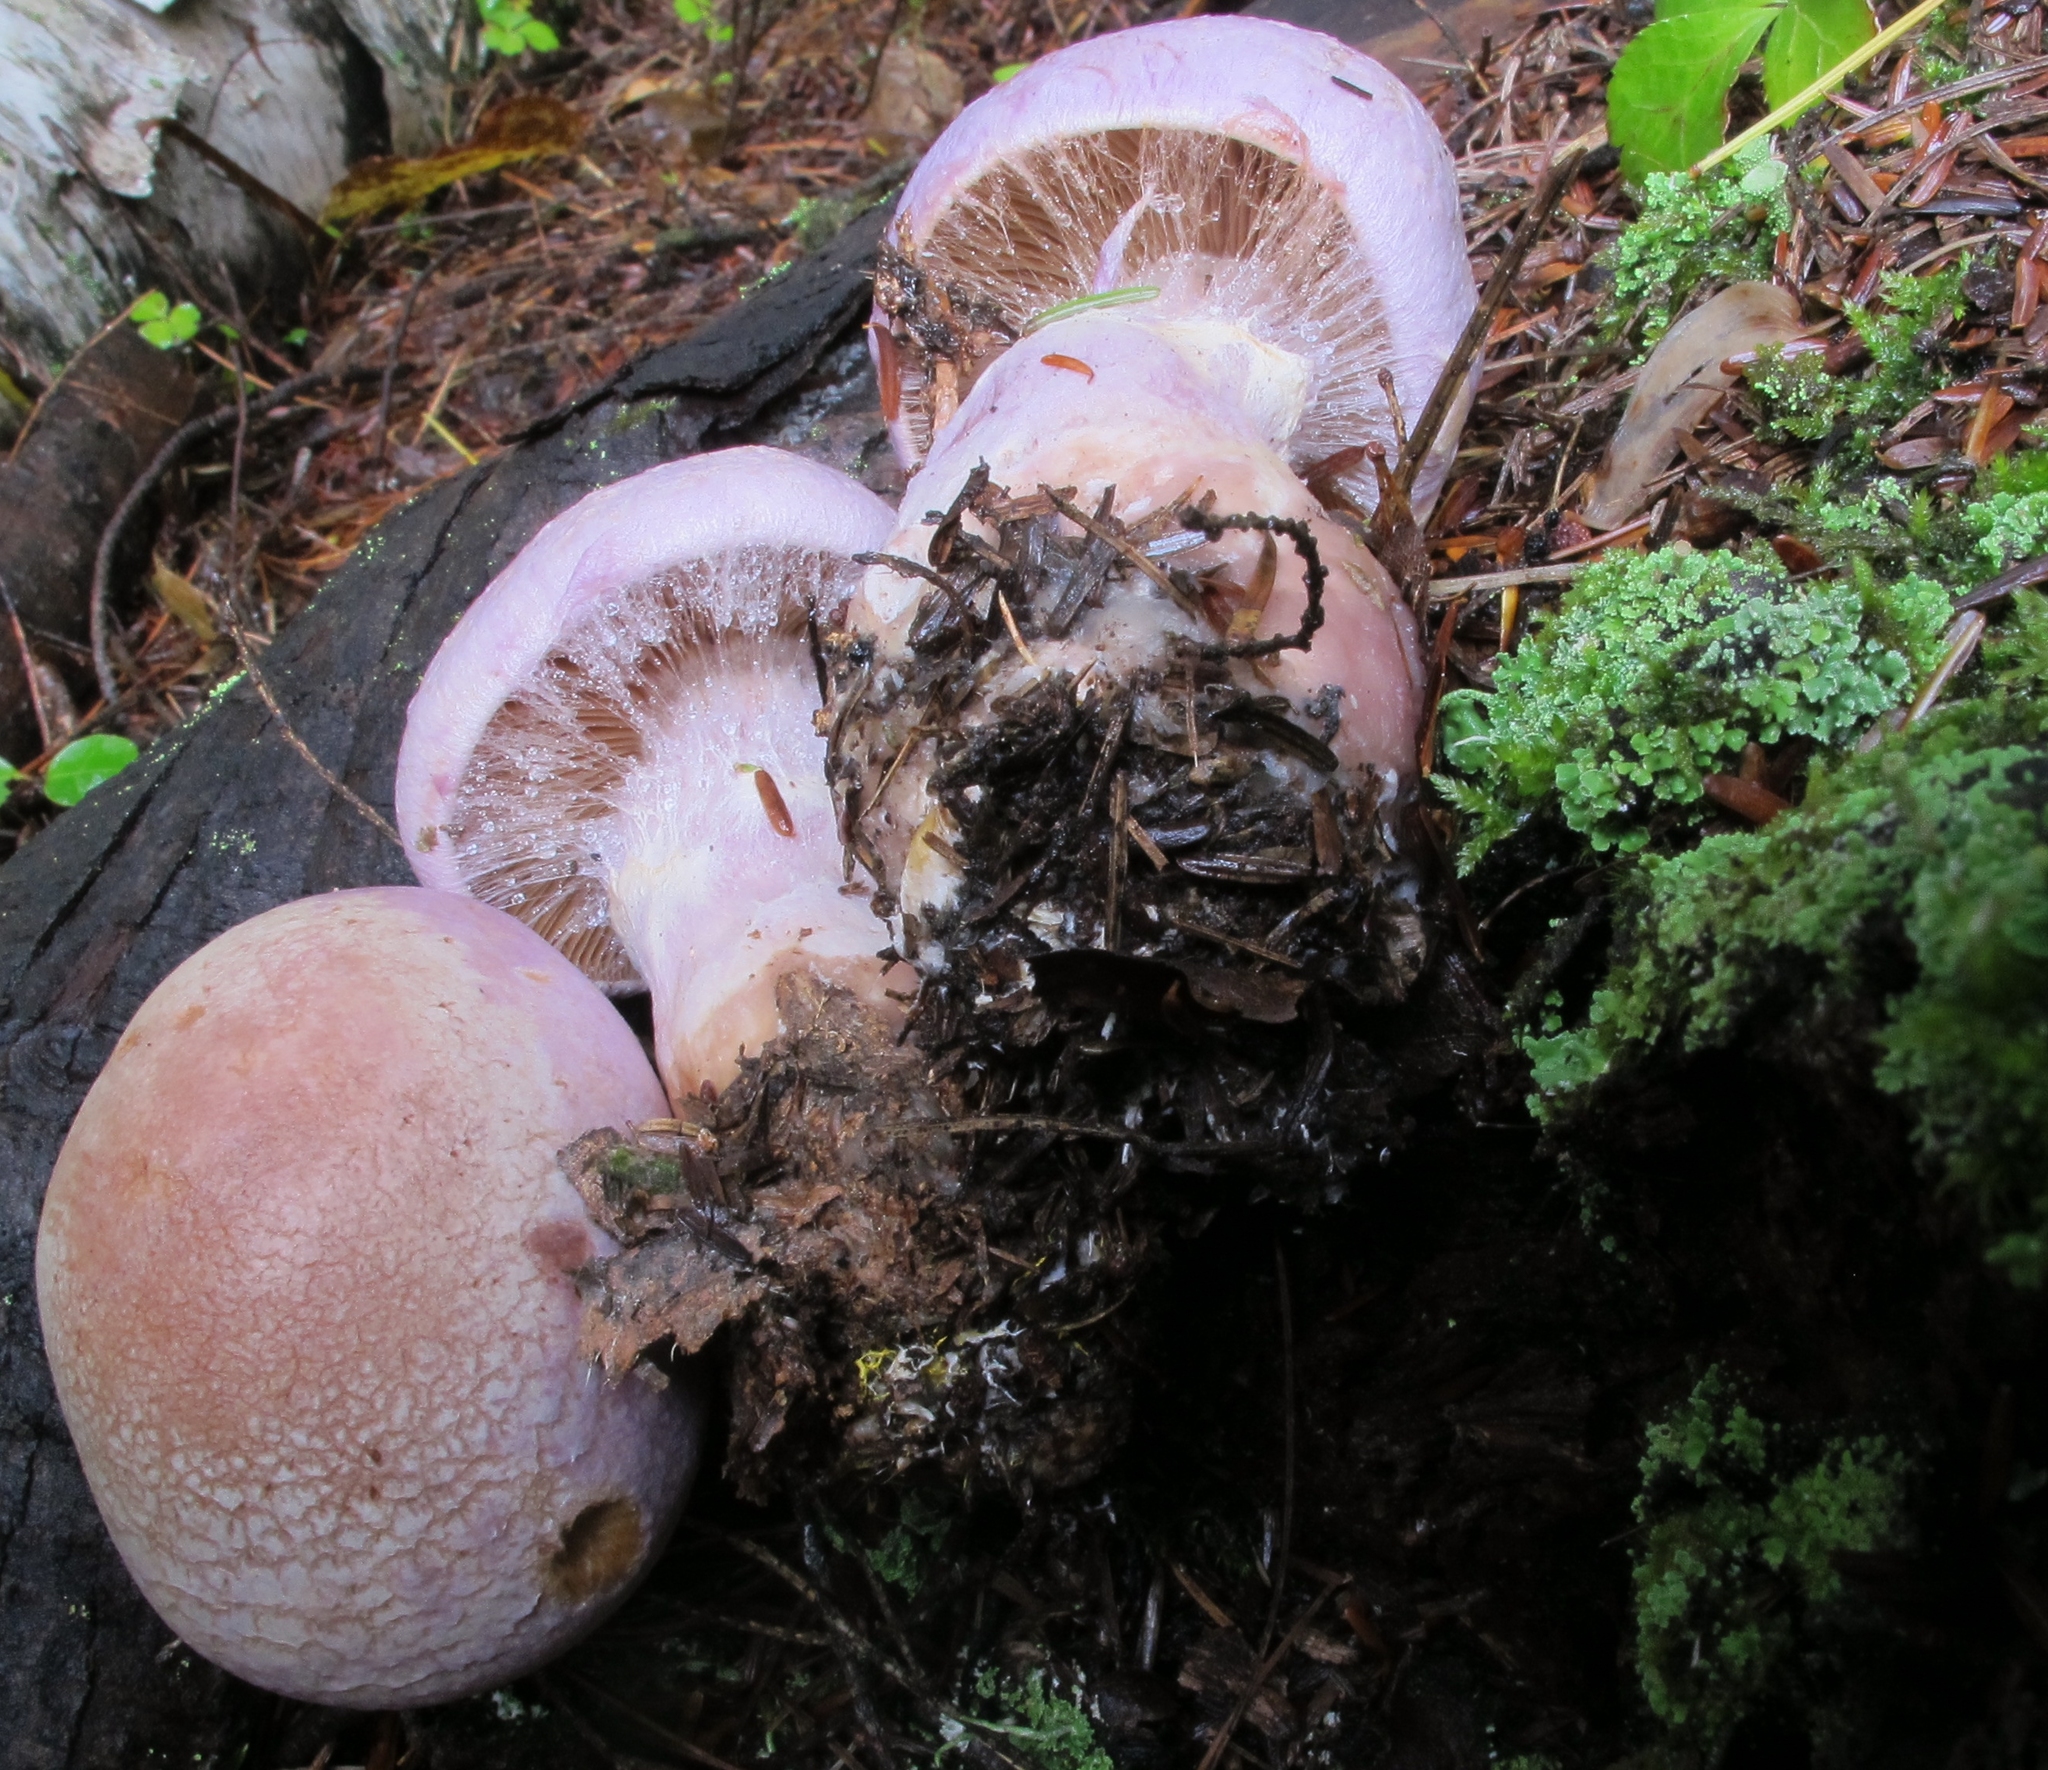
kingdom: Fungi
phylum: Basidiomycota
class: Agaricomycetes
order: Agaricales
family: Cortinariaceae
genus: Cortinarius
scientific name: Cortinarius traganus
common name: Gassy webcap
